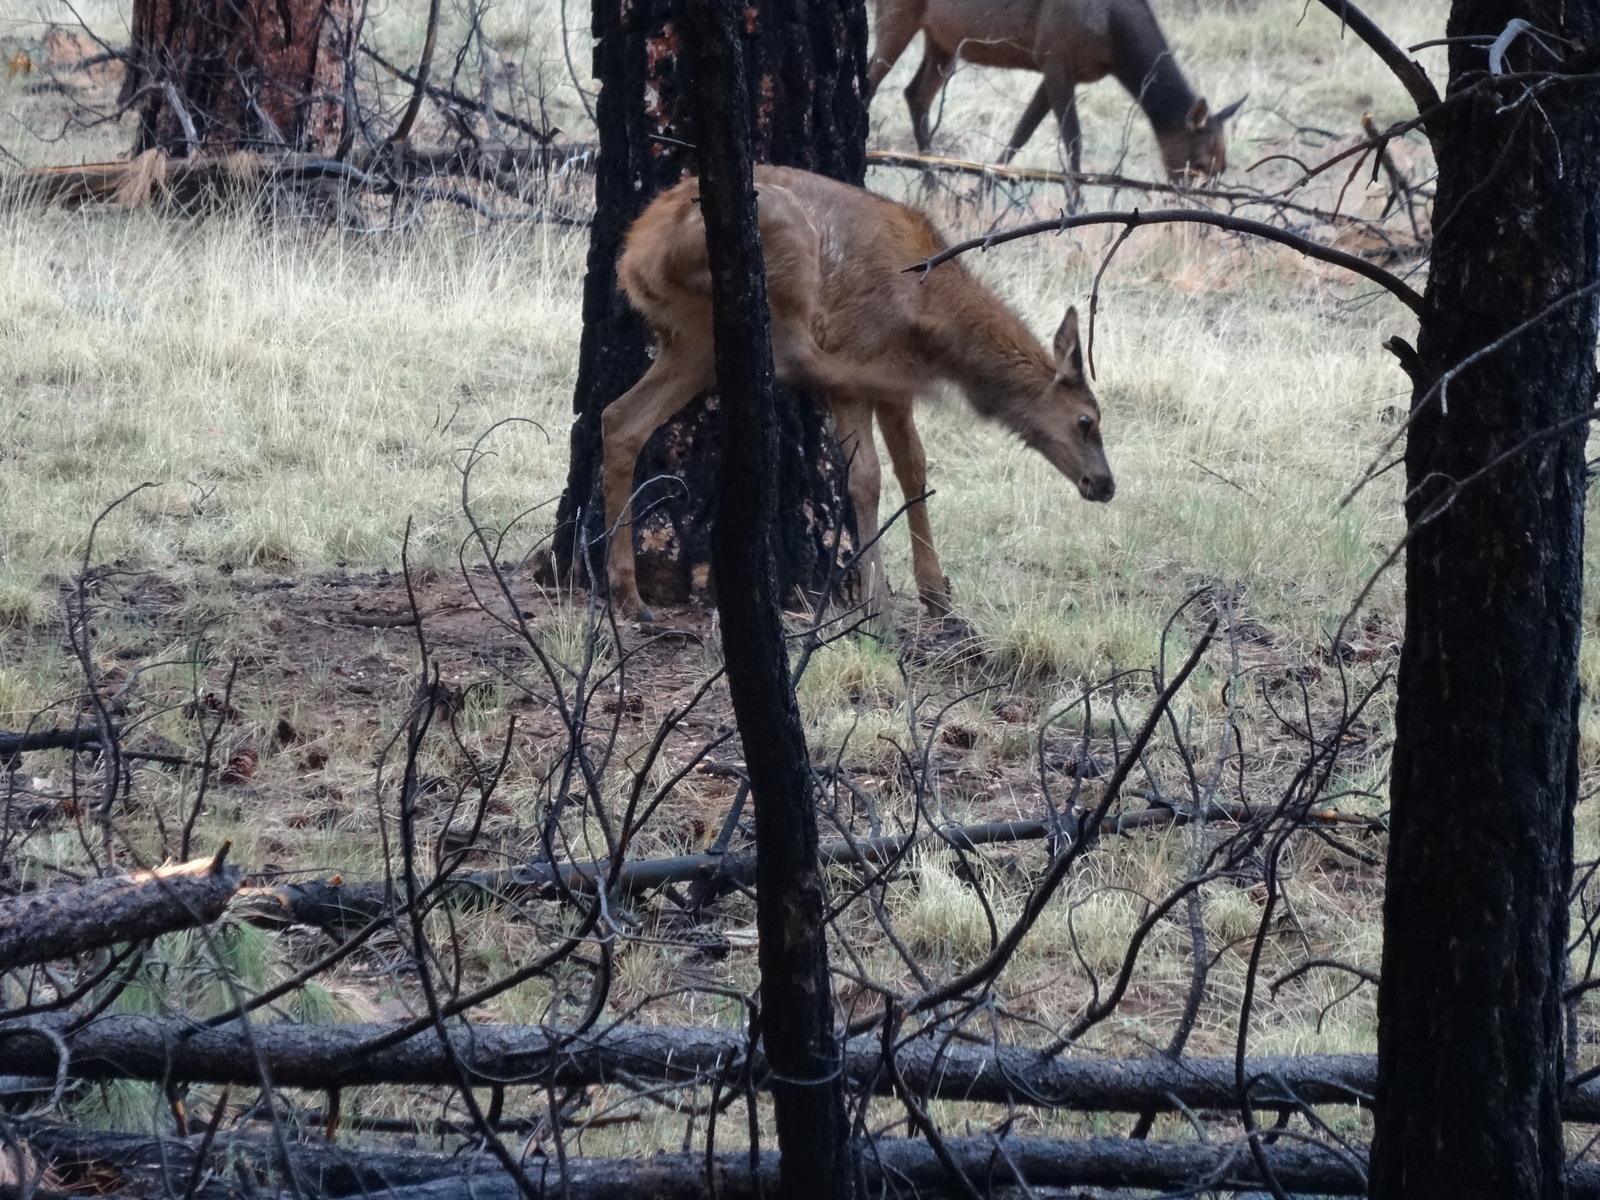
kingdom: Animalia
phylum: Chordata
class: Mammalia
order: Artiodactyla
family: Cervidae
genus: Cervus
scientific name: Cervus elaphus
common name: Red deer
